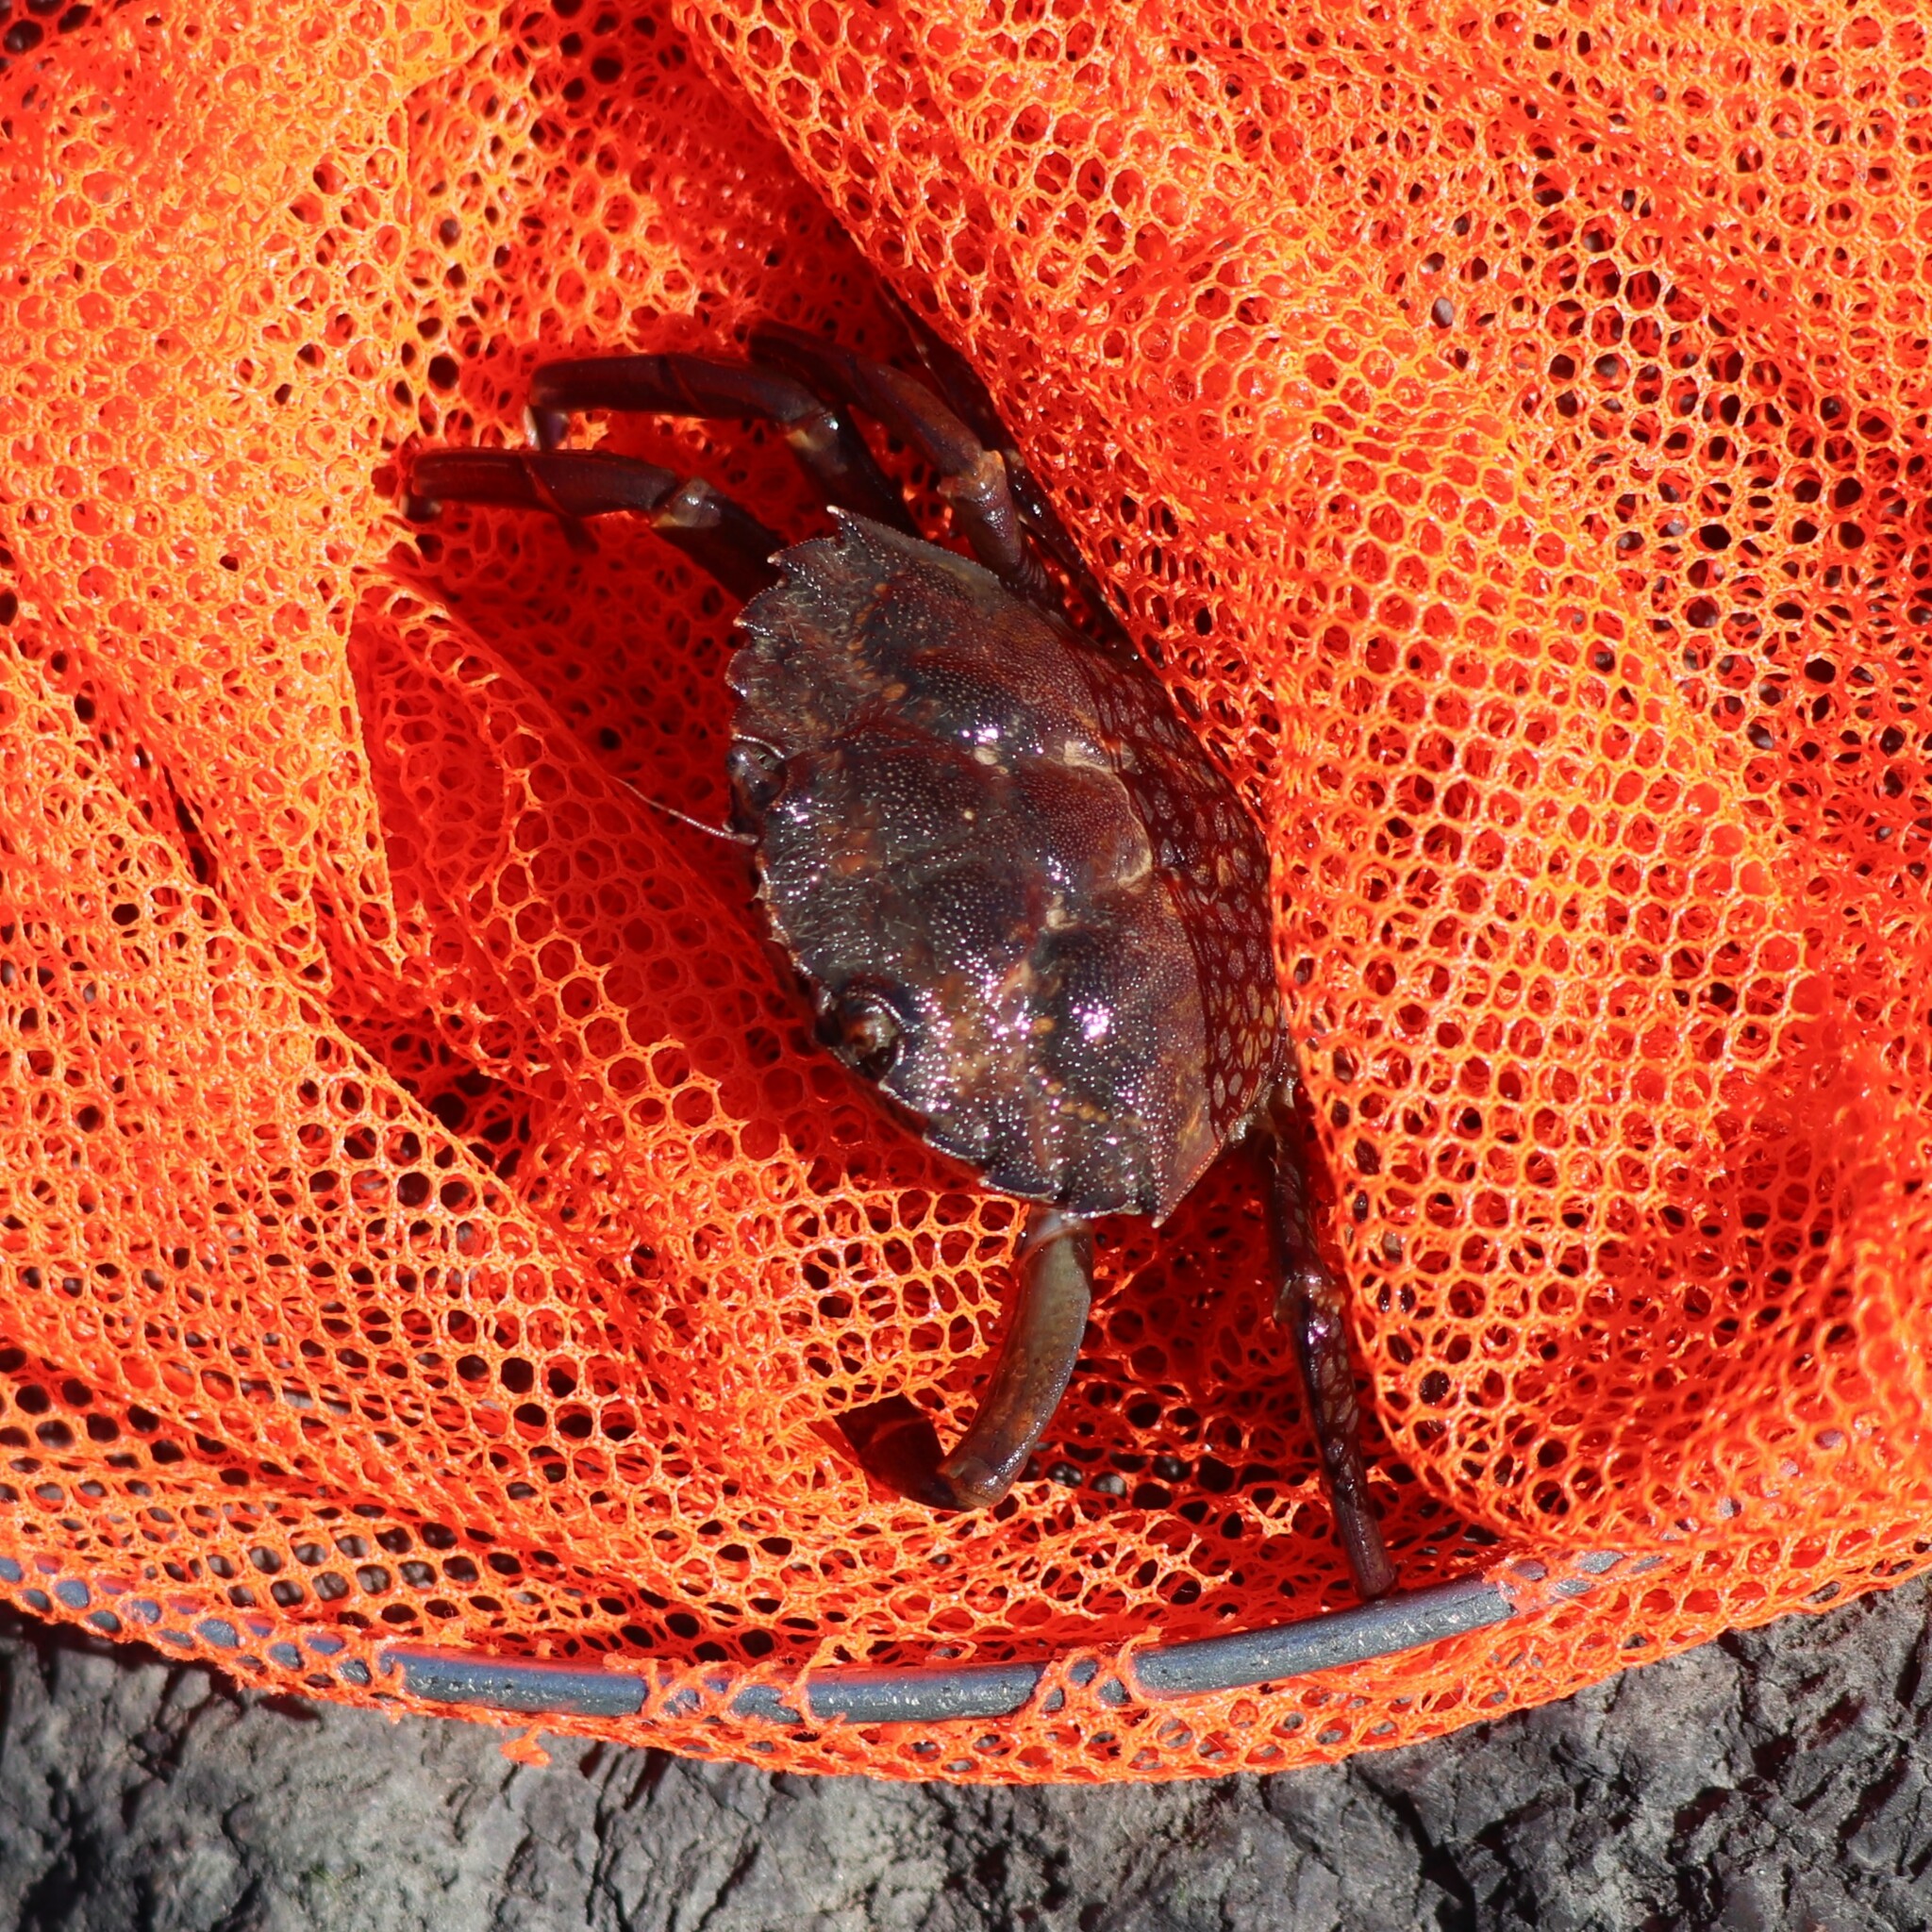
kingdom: Animalia
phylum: Arthropoda
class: Malacostraca
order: Decapoda
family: Carcinidae
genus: Carcinus
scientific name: Carcinus maenas
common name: European green crab
